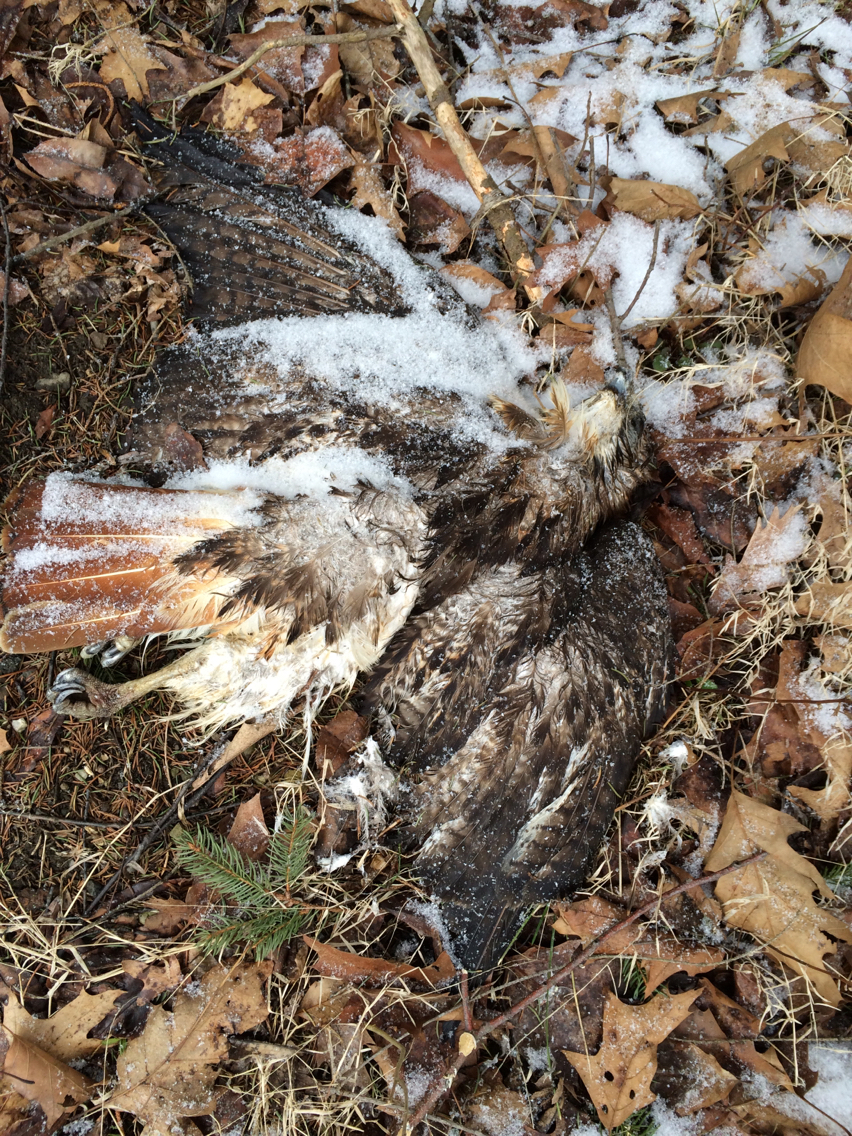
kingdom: Animalia
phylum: Chordata
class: Aves
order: Accipitriformes
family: Accipitridae
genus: Buteo
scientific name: Buteo jamaicensis
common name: Red-tailed hawk
